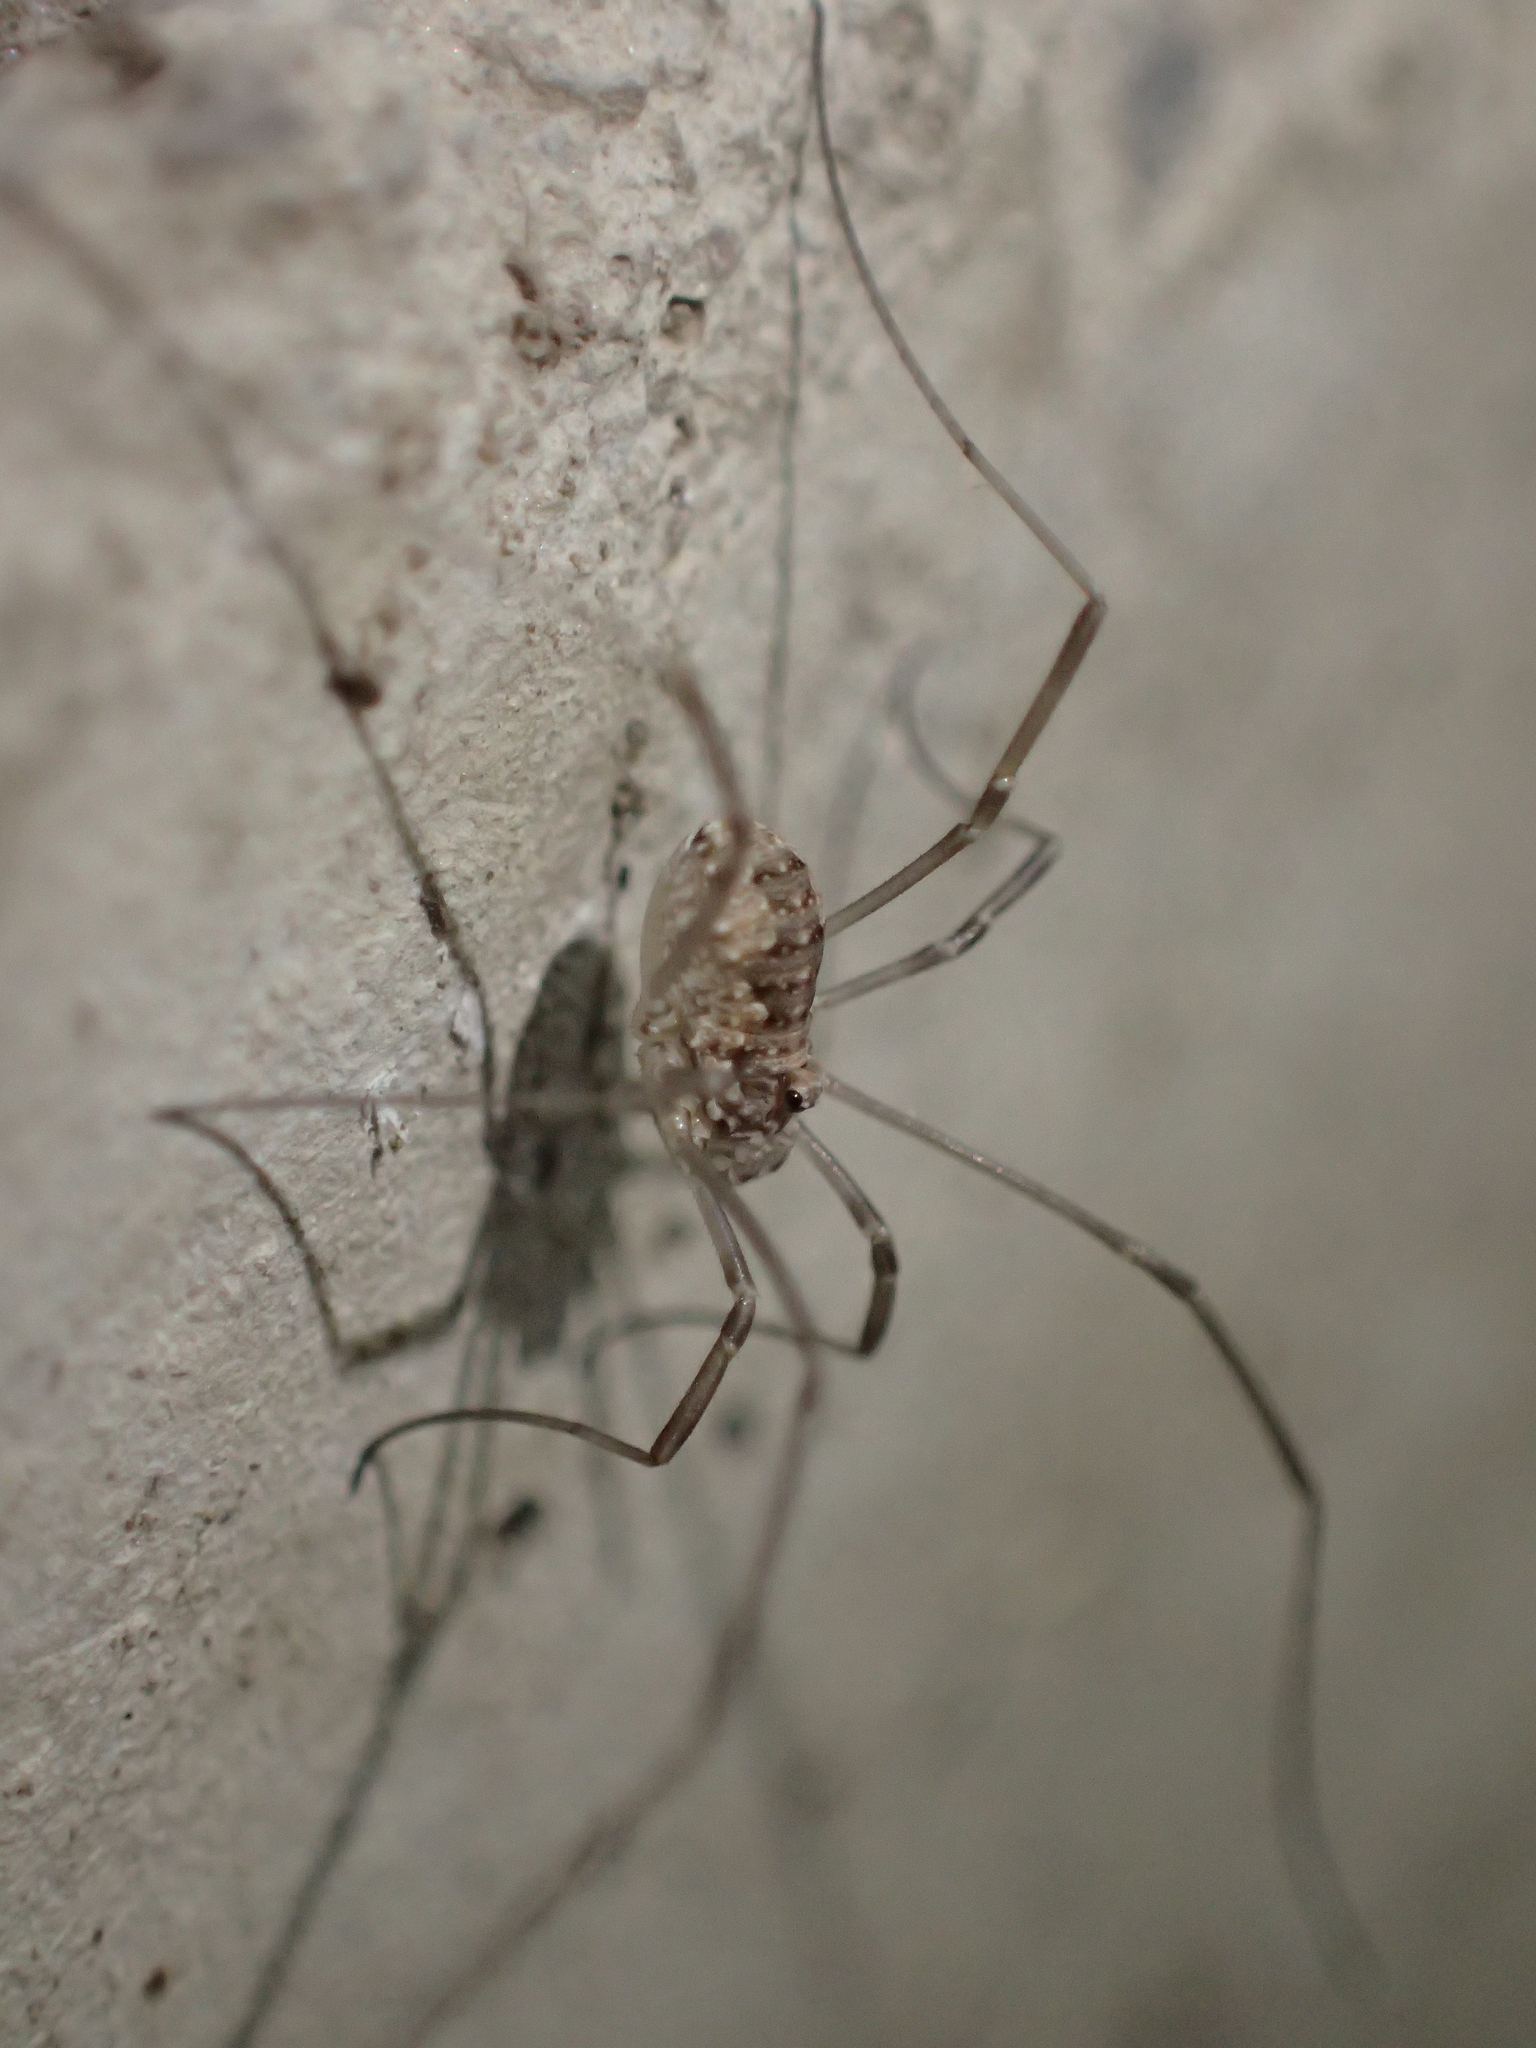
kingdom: Animalia
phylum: Arthropoda
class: Arachnida
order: Opiliones
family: Phalangiidae
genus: Phalangium
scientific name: Phalangium opilio
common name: Daddy longleg
